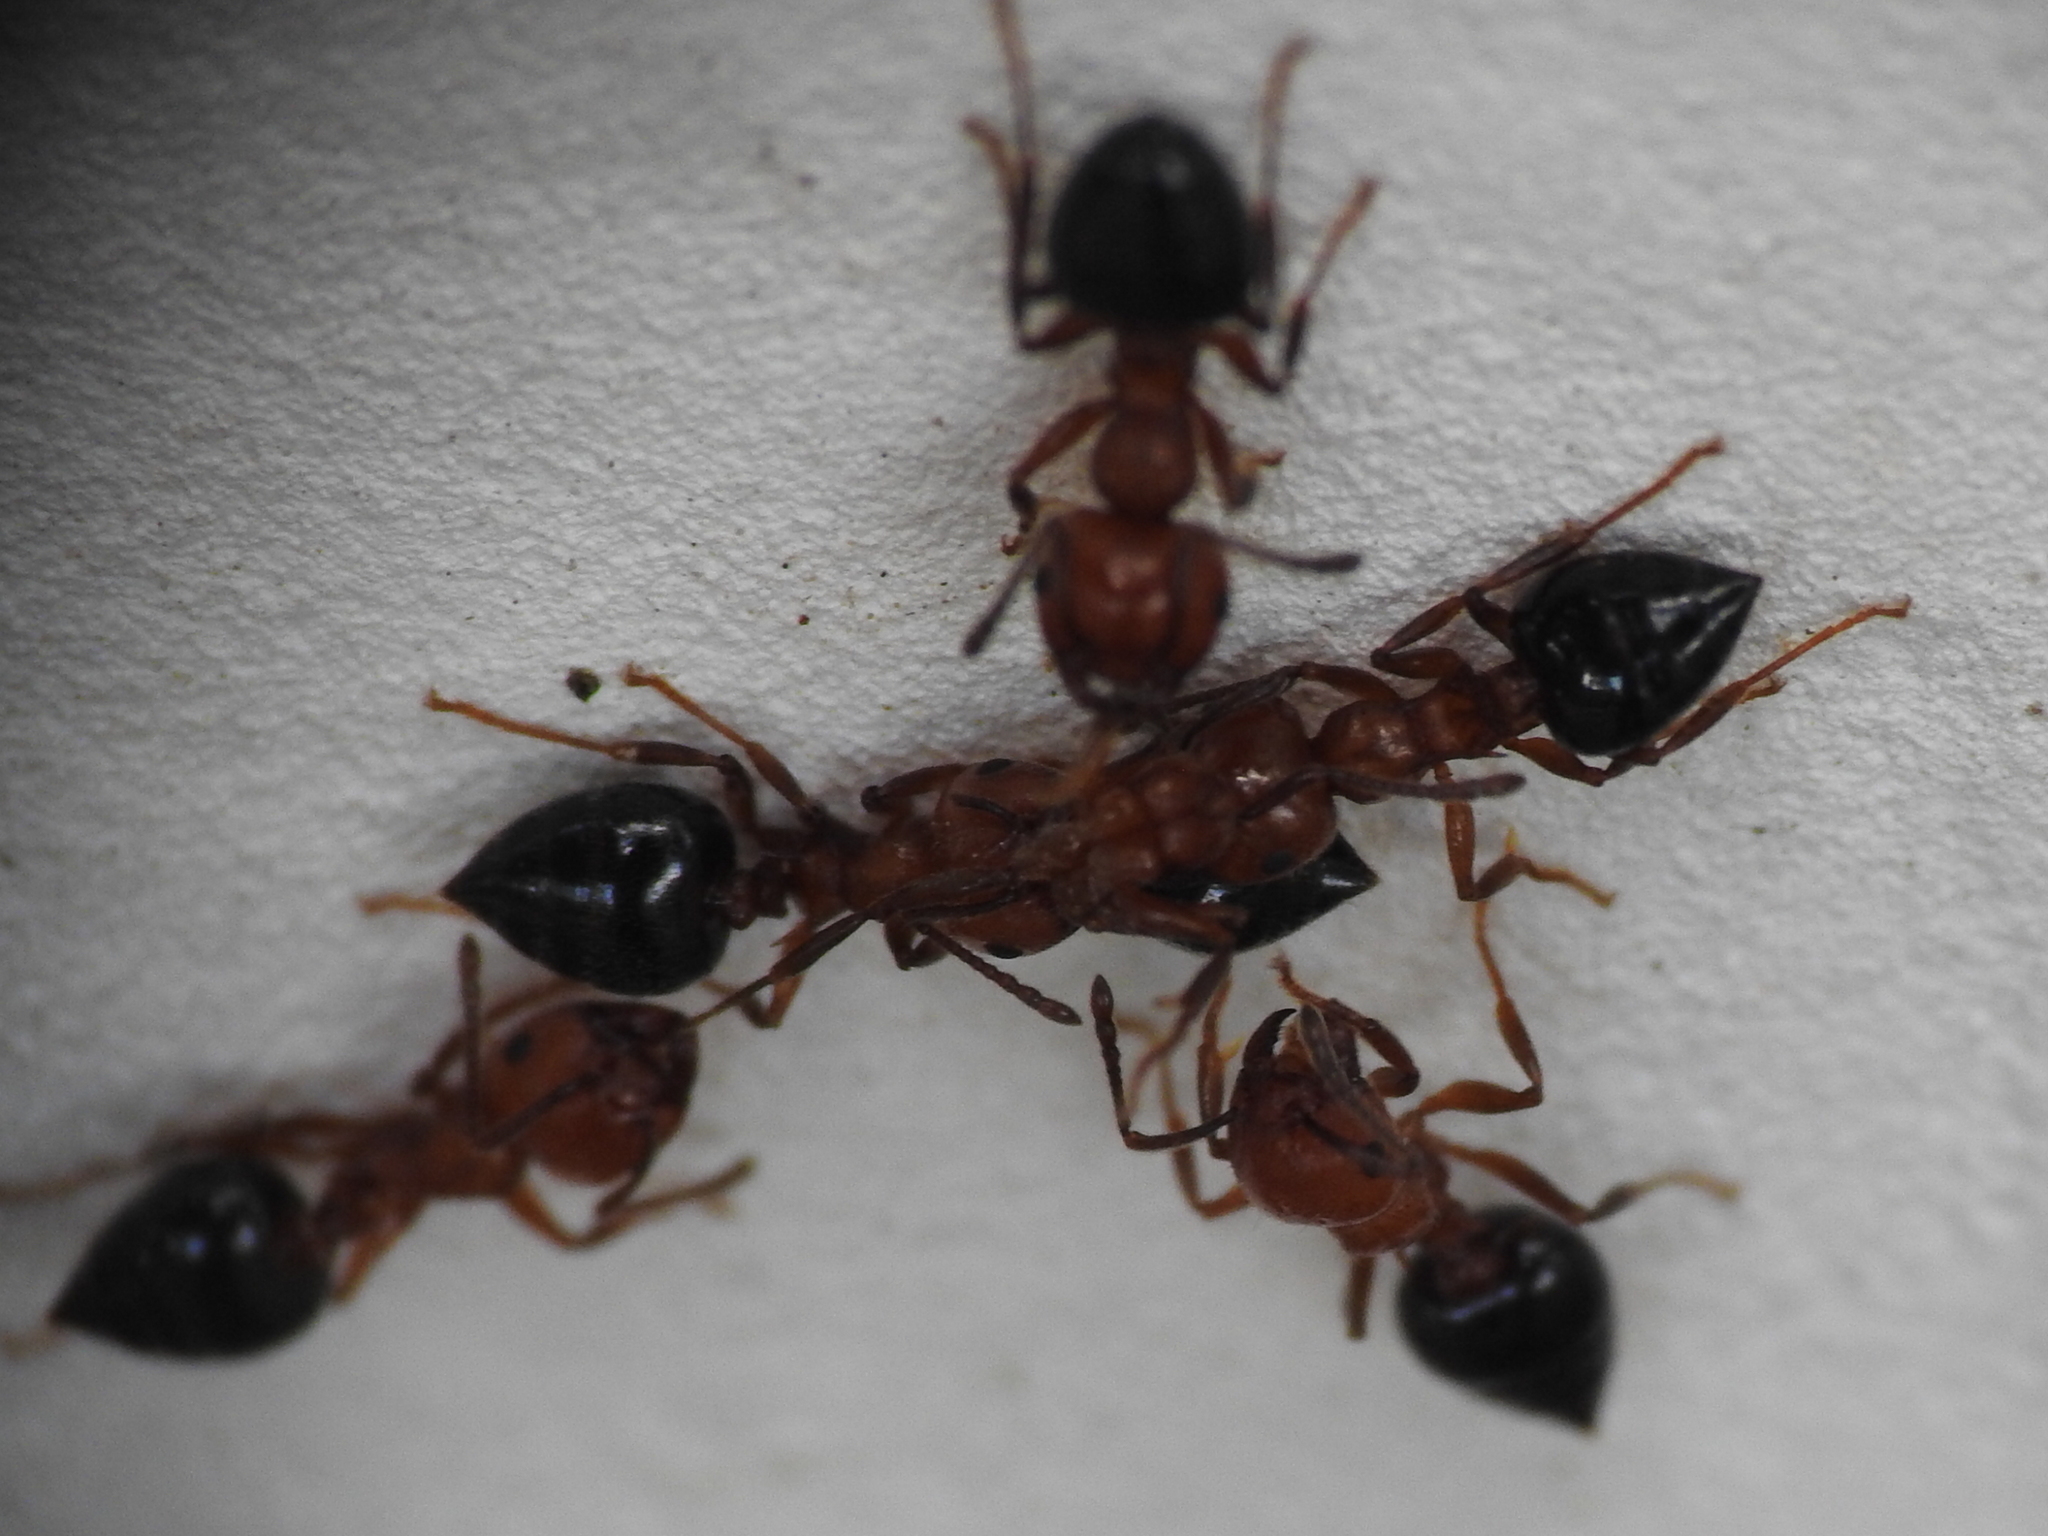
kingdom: Animalia
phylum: Arthropoda
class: Insecta
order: Hymenoptera
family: Formicidae
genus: Crematogaster
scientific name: Crematogaster laeviuscula
